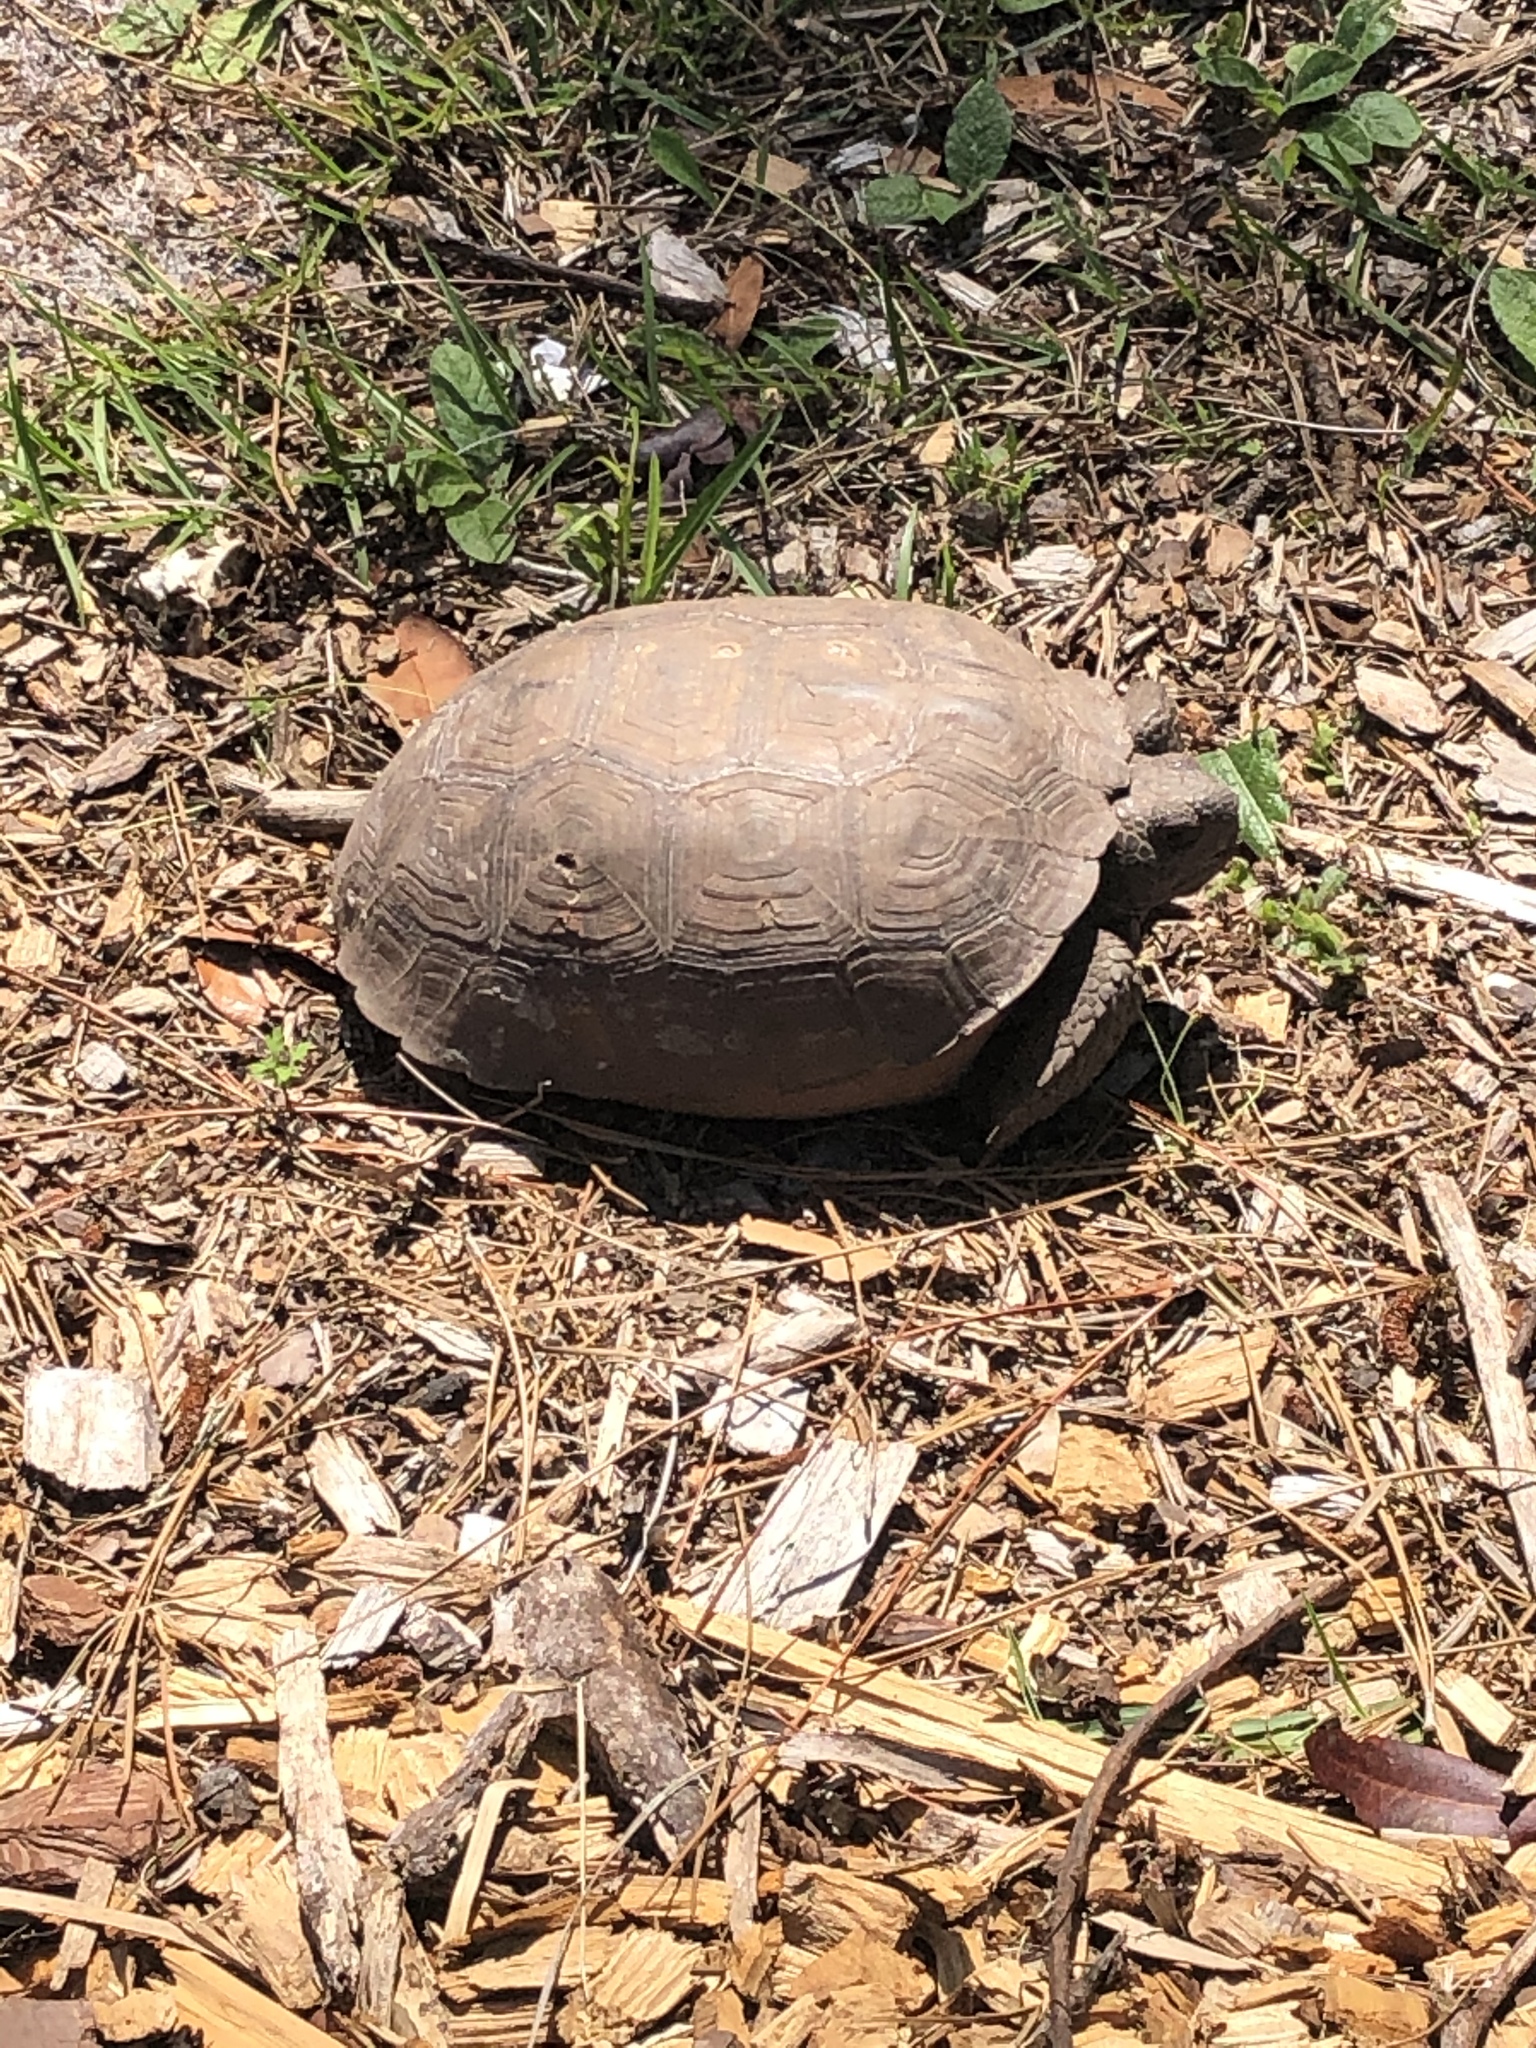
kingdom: Animalia
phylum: Chordata
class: Testudines
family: Testudinidae
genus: Gopherus
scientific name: Gopherus polyphemus
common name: Florida gopher tortoise
